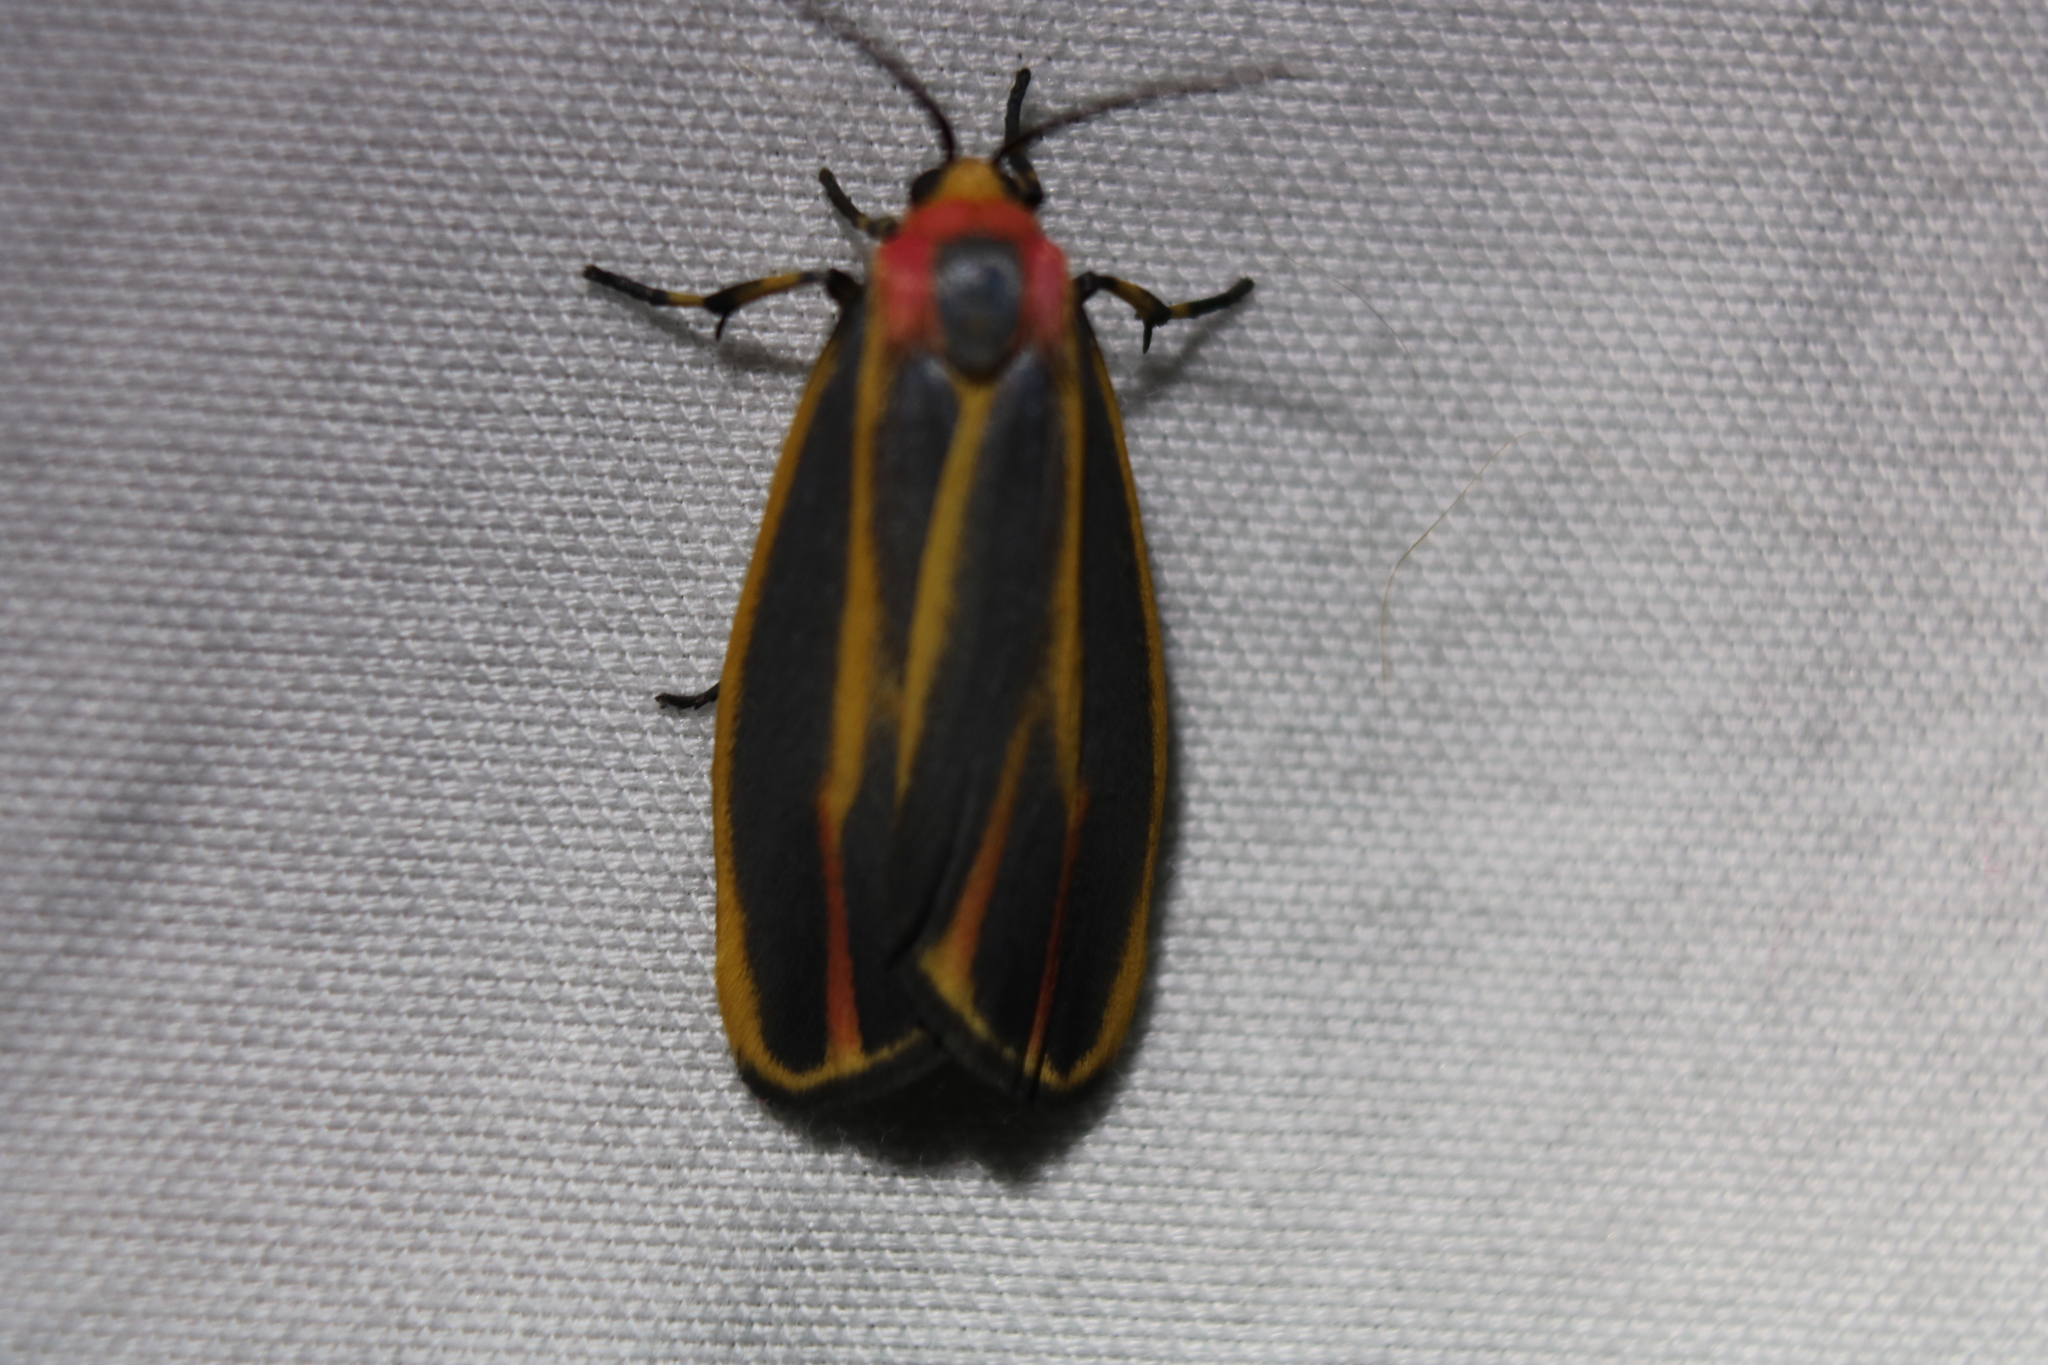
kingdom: Animalia
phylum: Arthropoda
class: Insecta
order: Lepidoptera
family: Erebidae
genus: Hypoprepia
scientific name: Hypoprepia fucosa
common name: Painted lichen moth
